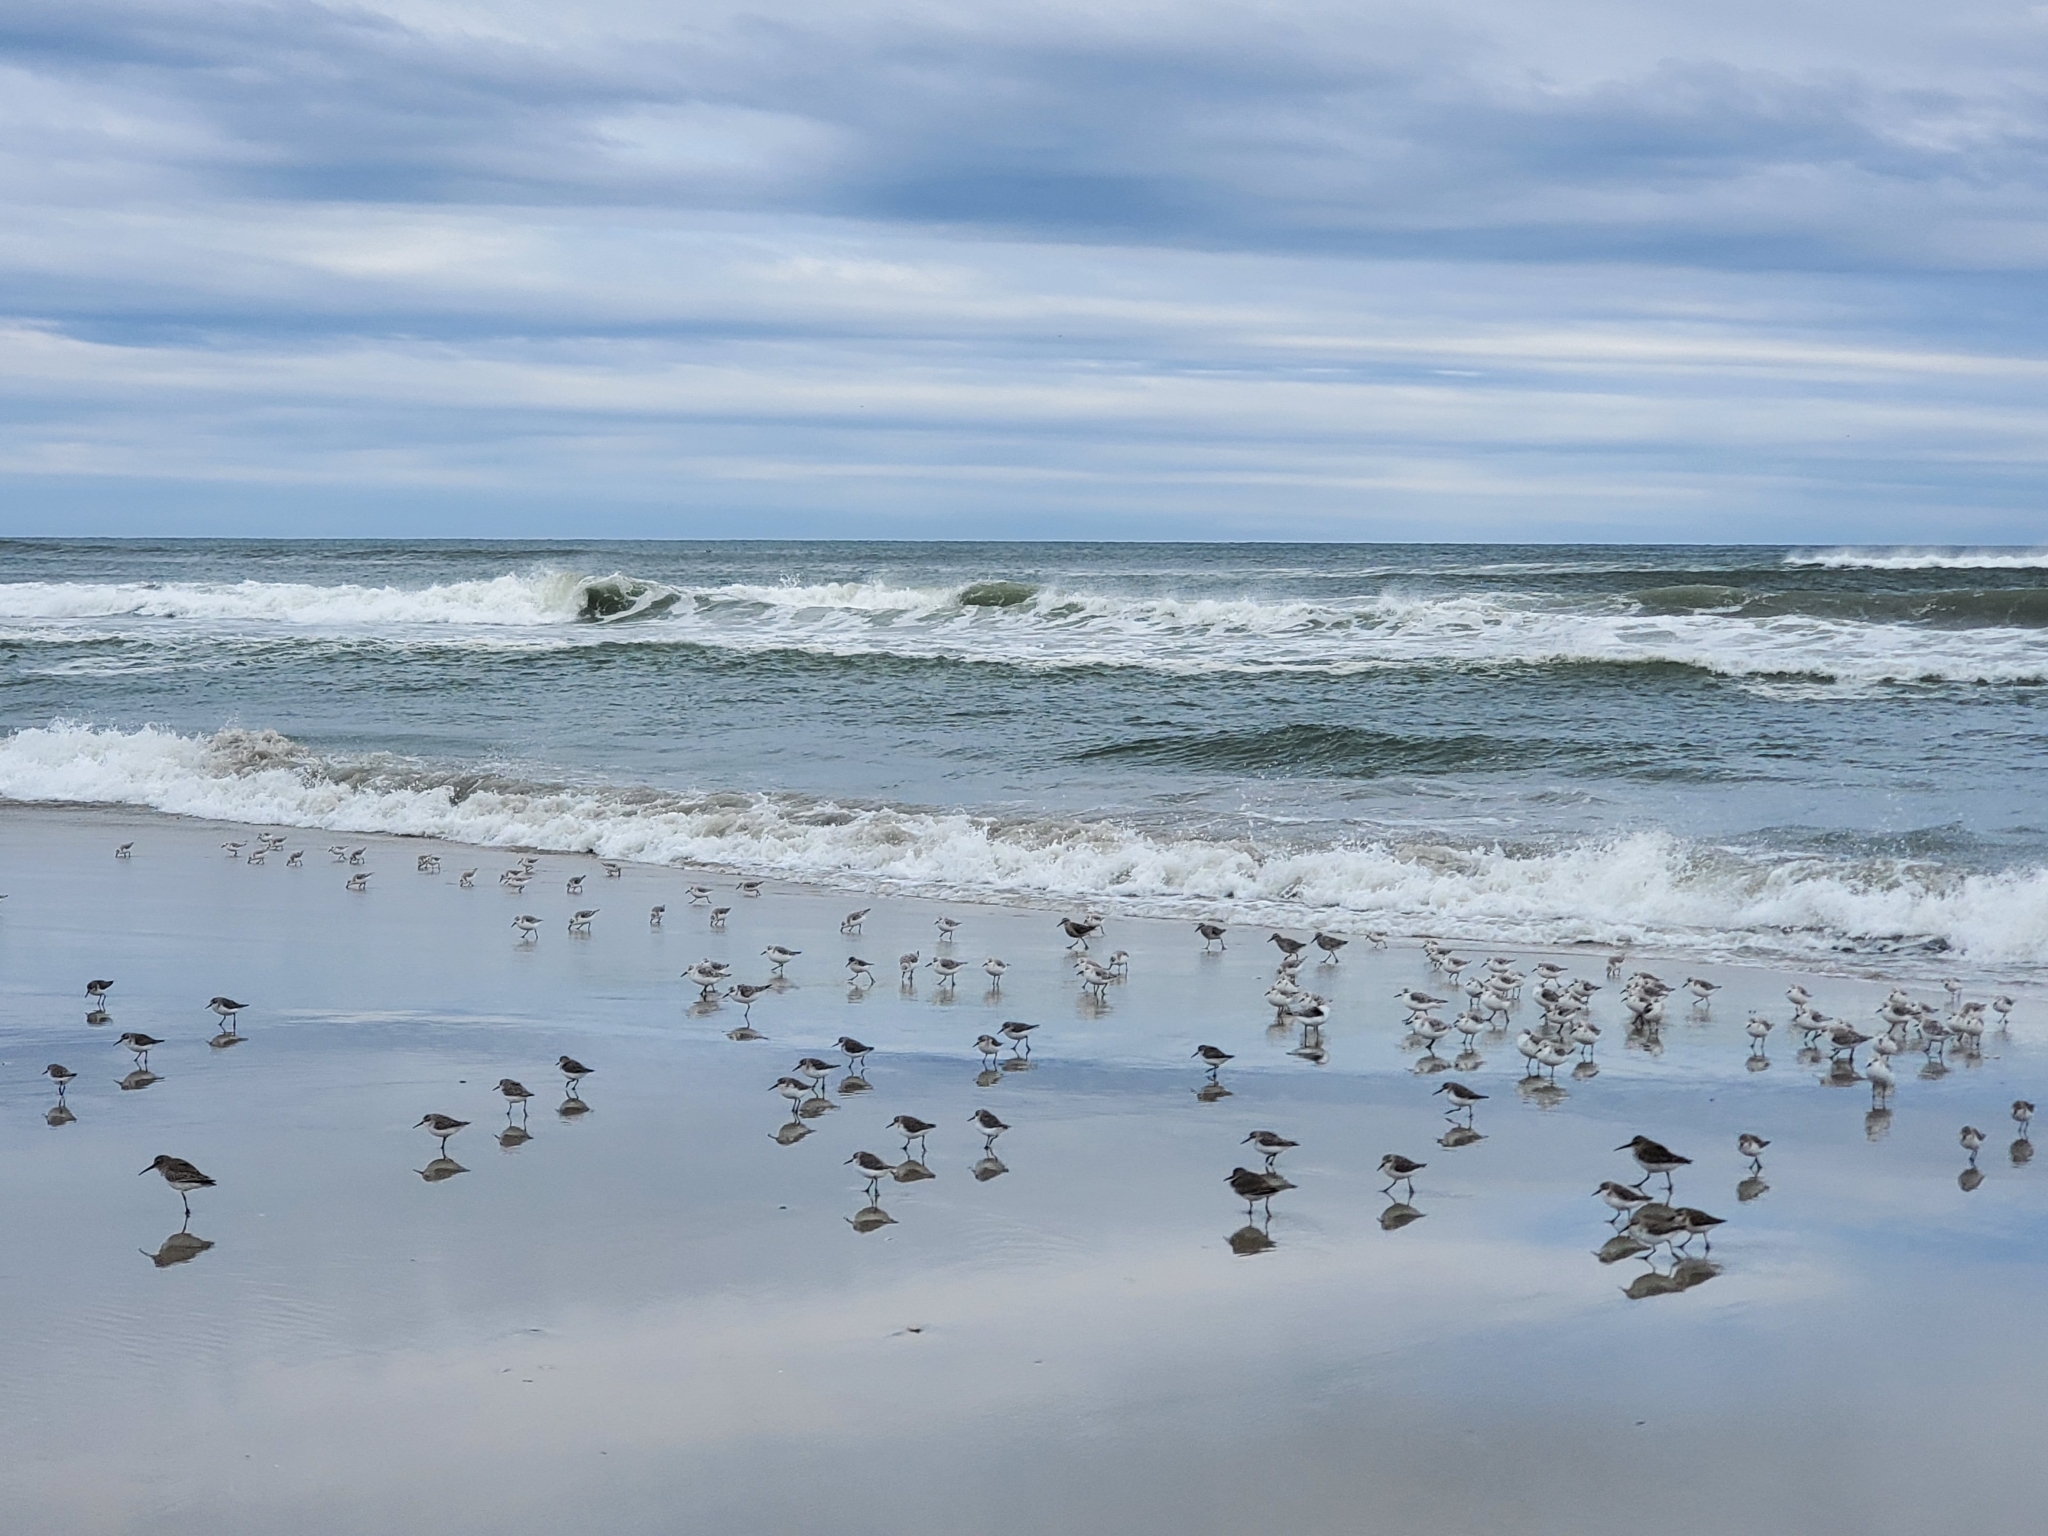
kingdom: Animalia
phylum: Chordata
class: Aves
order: Charadriiformes
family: Scolopacidae
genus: Calidris
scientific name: Calidris alba
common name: Sanderling
